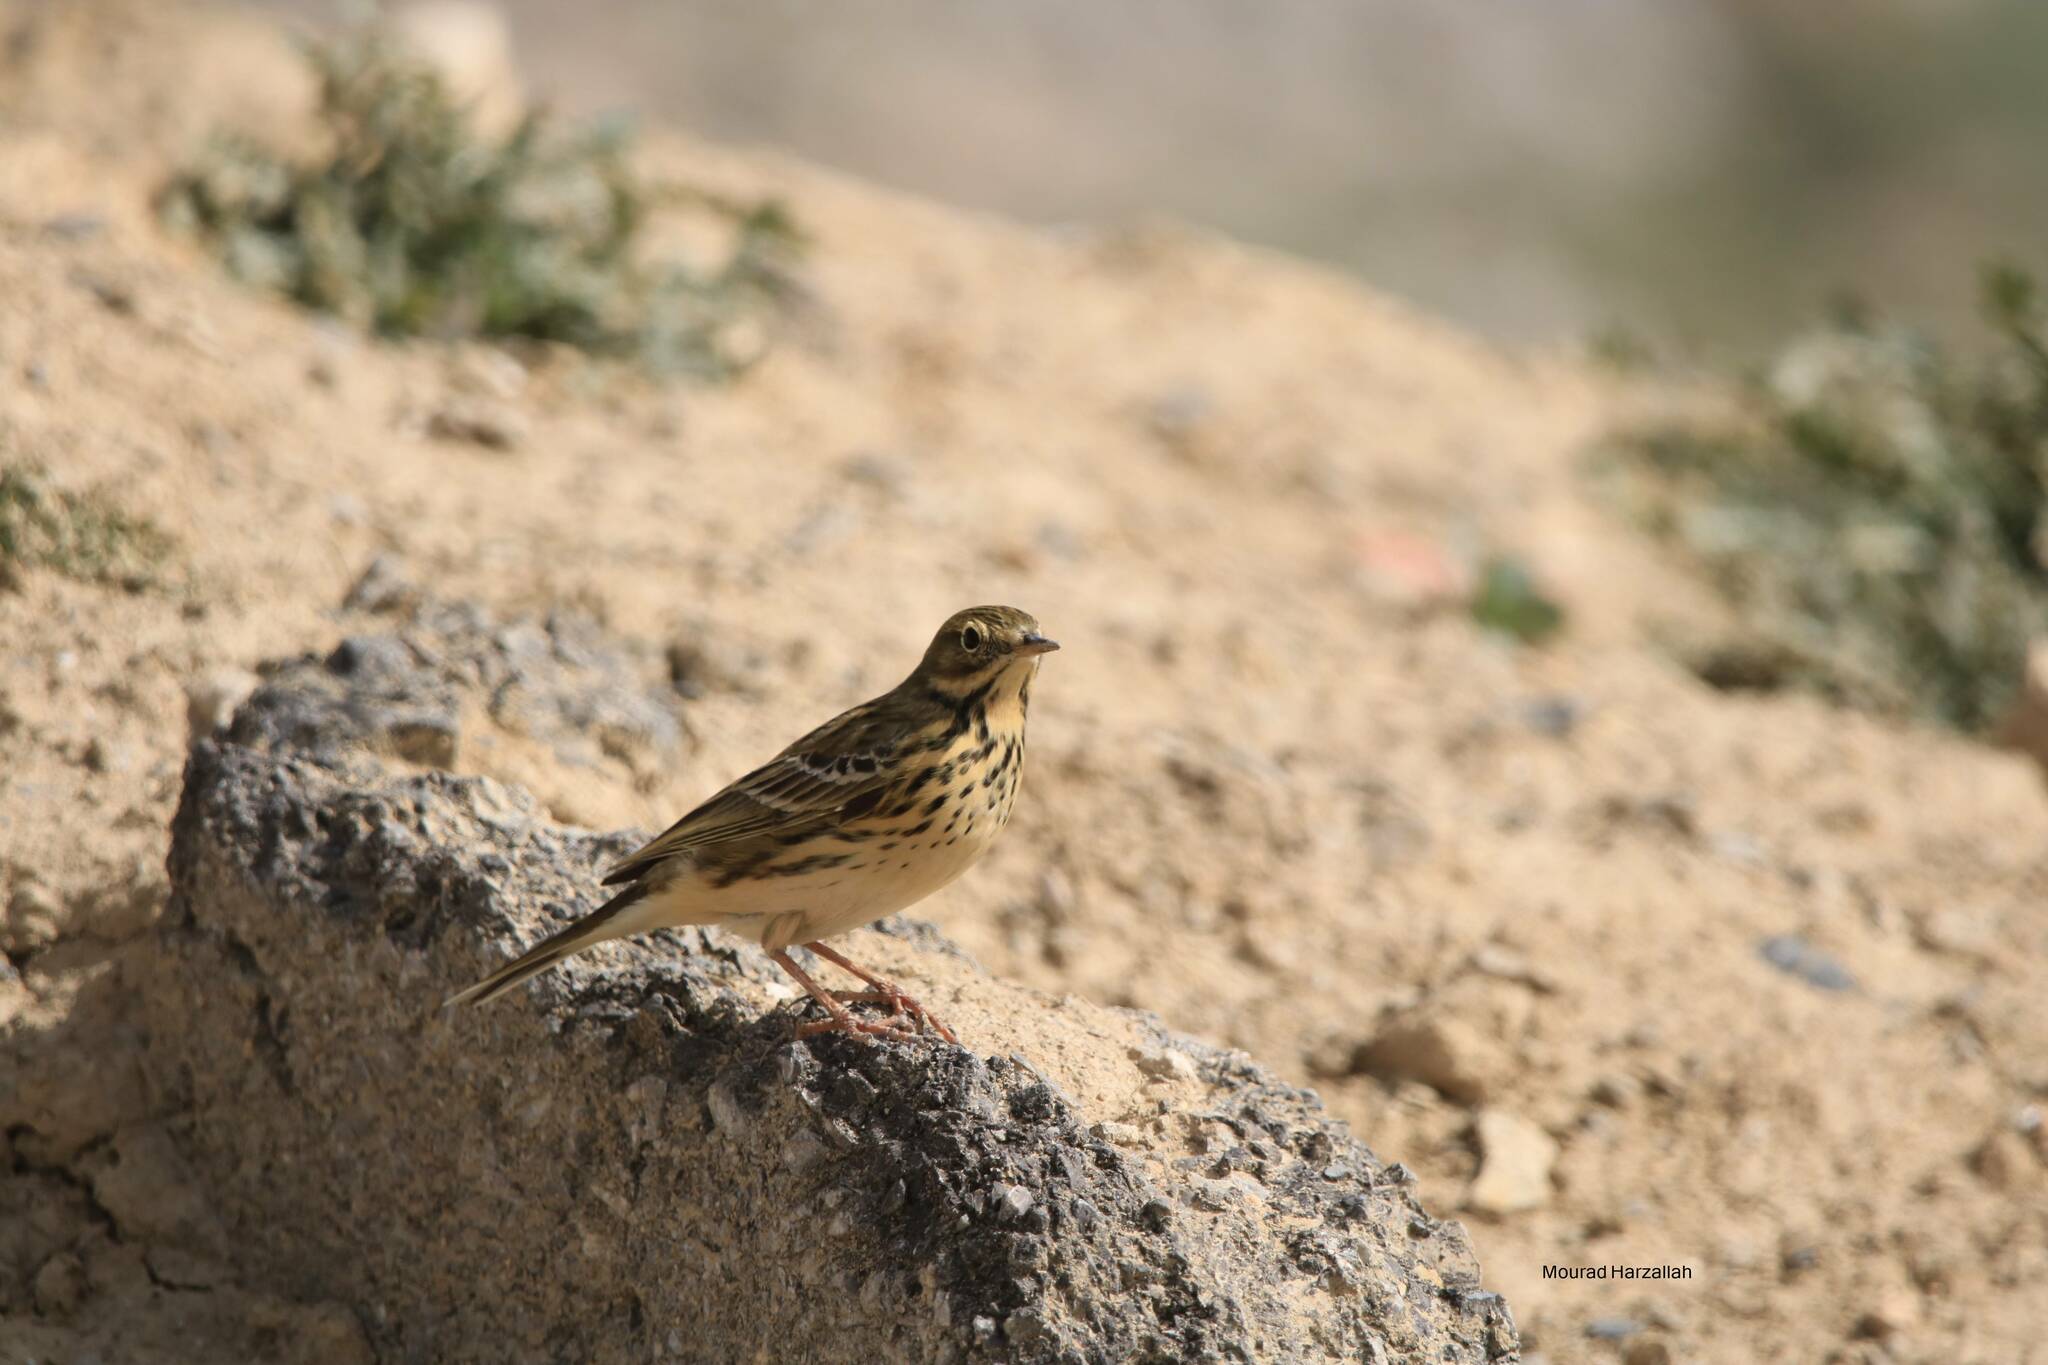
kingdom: Animalia
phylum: Chordata
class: Aves
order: Passeriformes
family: Motacillidae
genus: Anthus
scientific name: Anthus pratensis
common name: Meadow pipit
